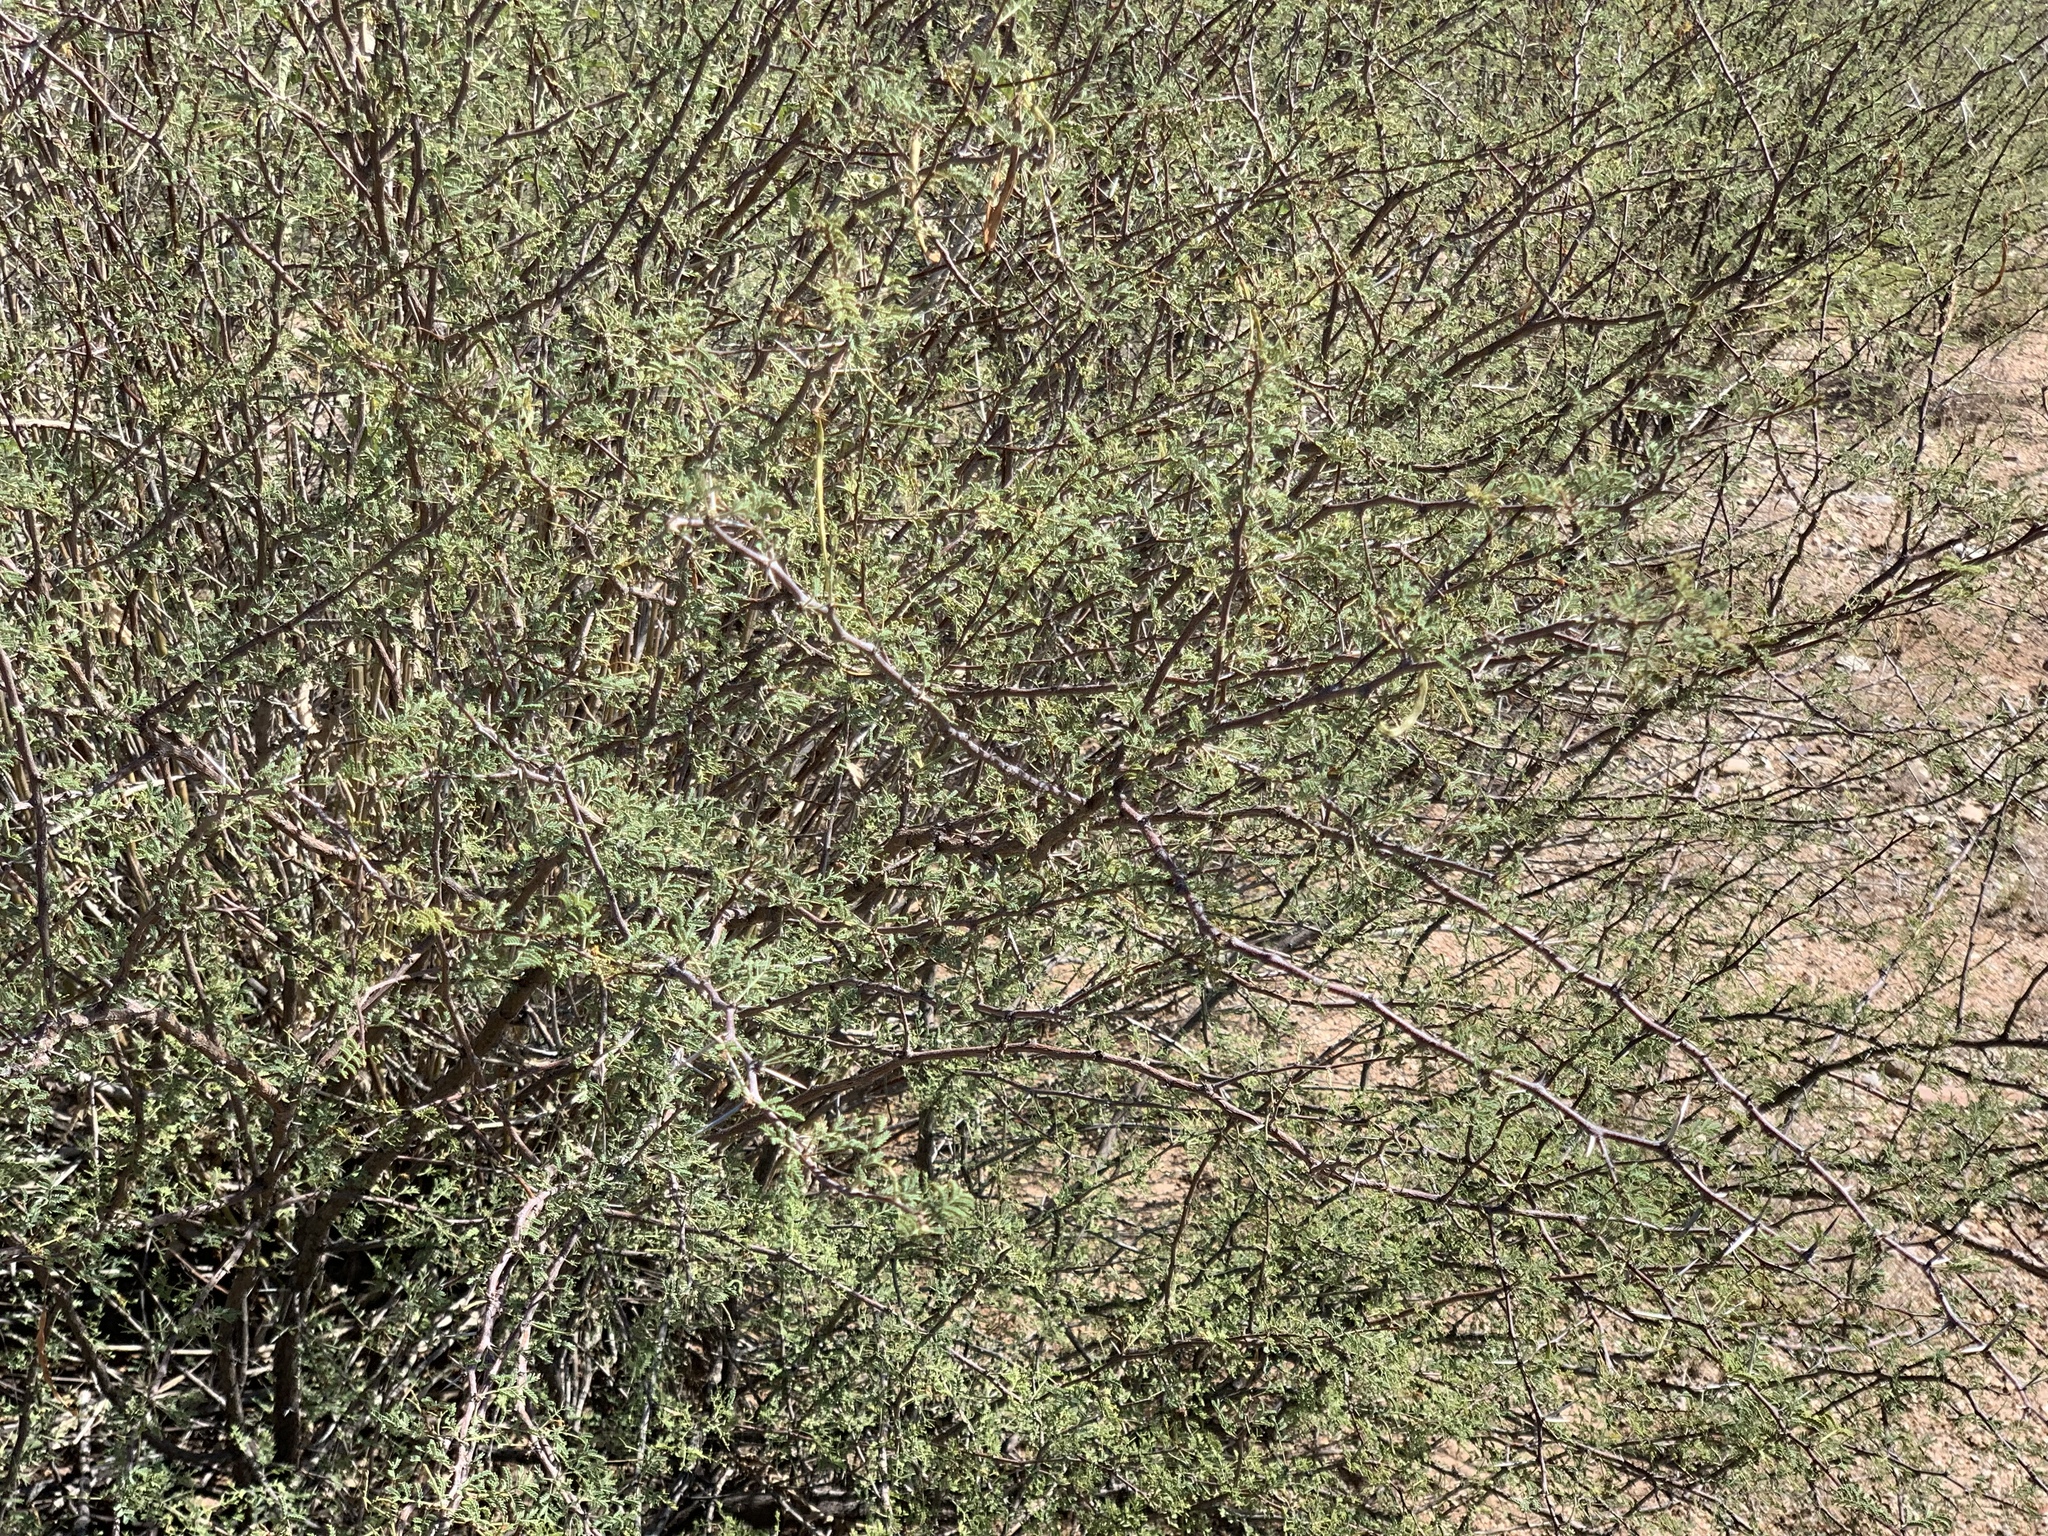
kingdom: Plantae
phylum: Tracheophyta
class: Magnoliopsida
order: Fabales
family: Fabaceae
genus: Vachellia
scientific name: Vachellia constricta
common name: Mescat acacia
